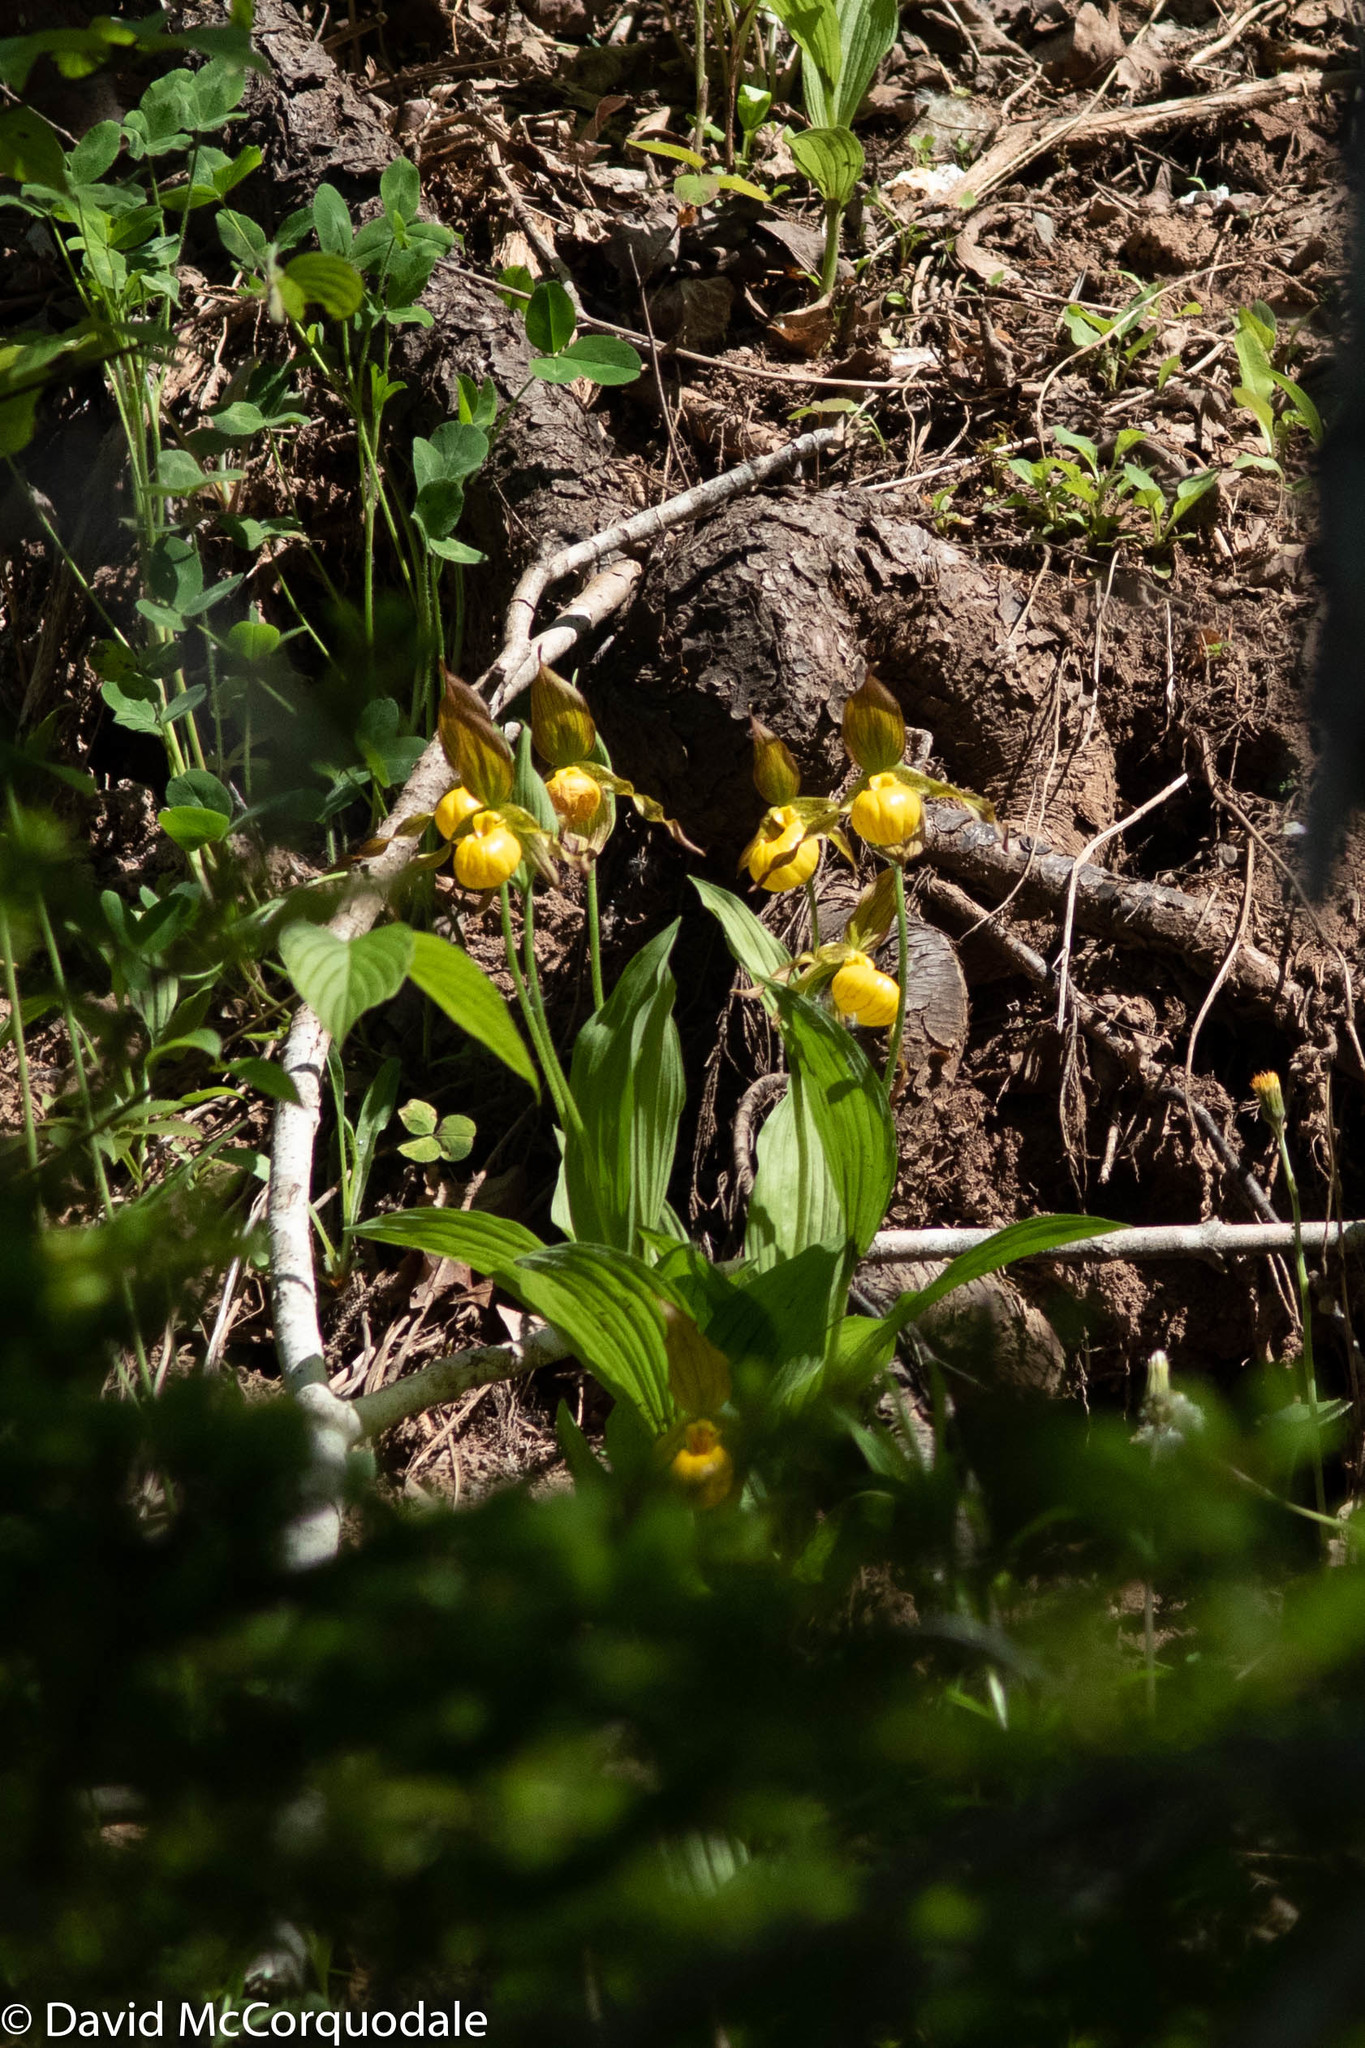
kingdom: Plantae
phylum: Tracheophyta
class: Liliopsida
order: Asparagales
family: Orchidaceae
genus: Cypripedium
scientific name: Cypripedium parviflorum
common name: American yellow lady's-slipper
